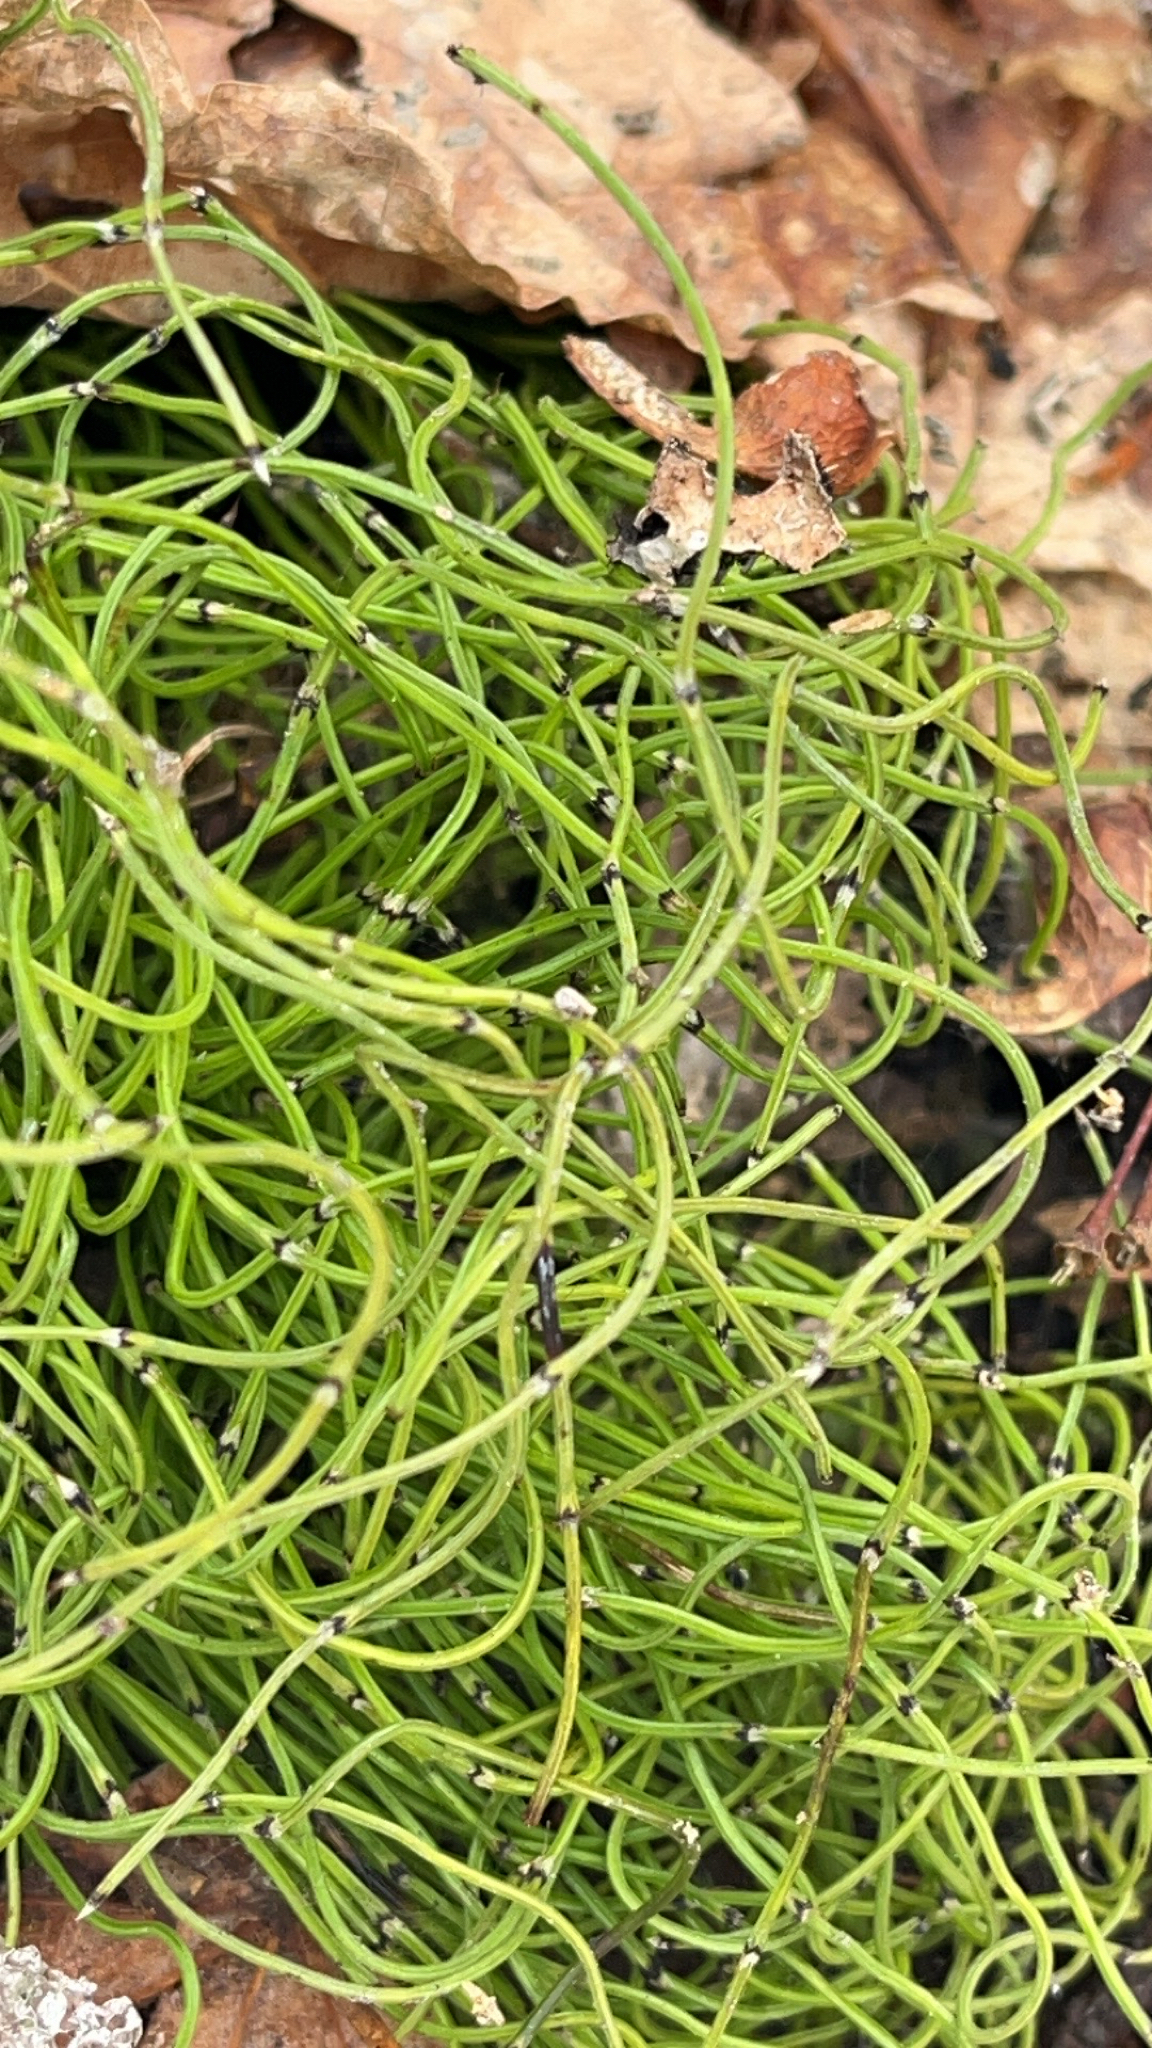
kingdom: Plantae
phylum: Tracheophyta
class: Polypodiopsida
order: Equisetales
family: Equisetaceae
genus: Equisetum
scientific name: Equisetum scirpoides
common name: Delicate horsetail
